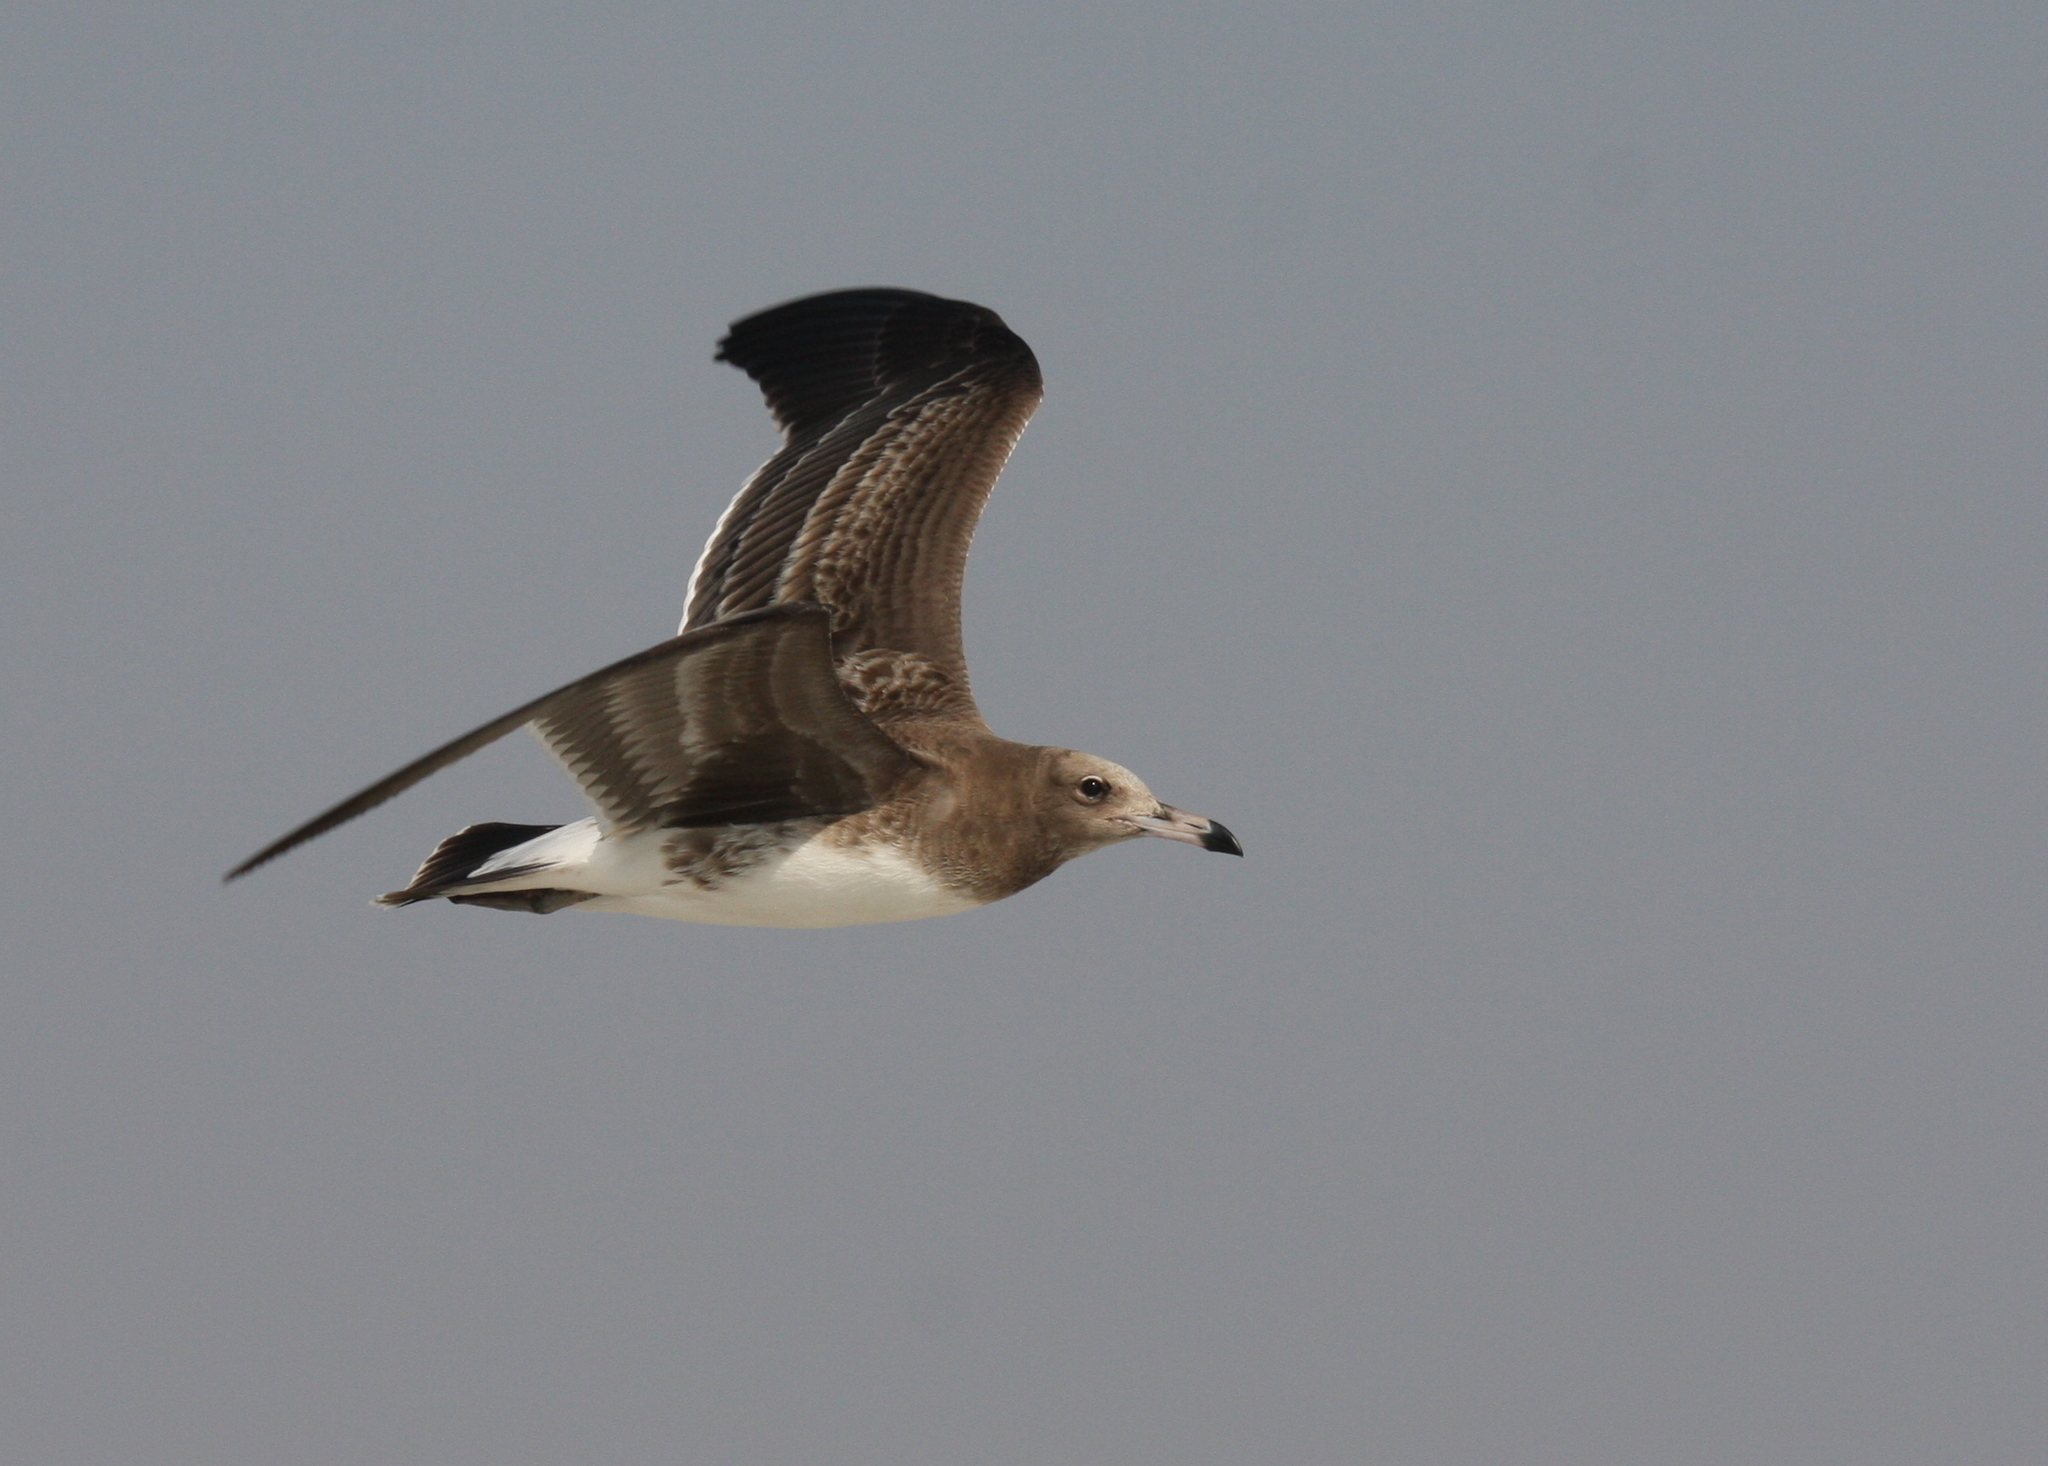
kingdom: Animalia
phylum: Chordata
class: Aves
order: Charadriiformes
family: Laridae
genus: Ichthyaetus
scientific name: Ichthyaetus hemprichii
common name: Sooty gull
